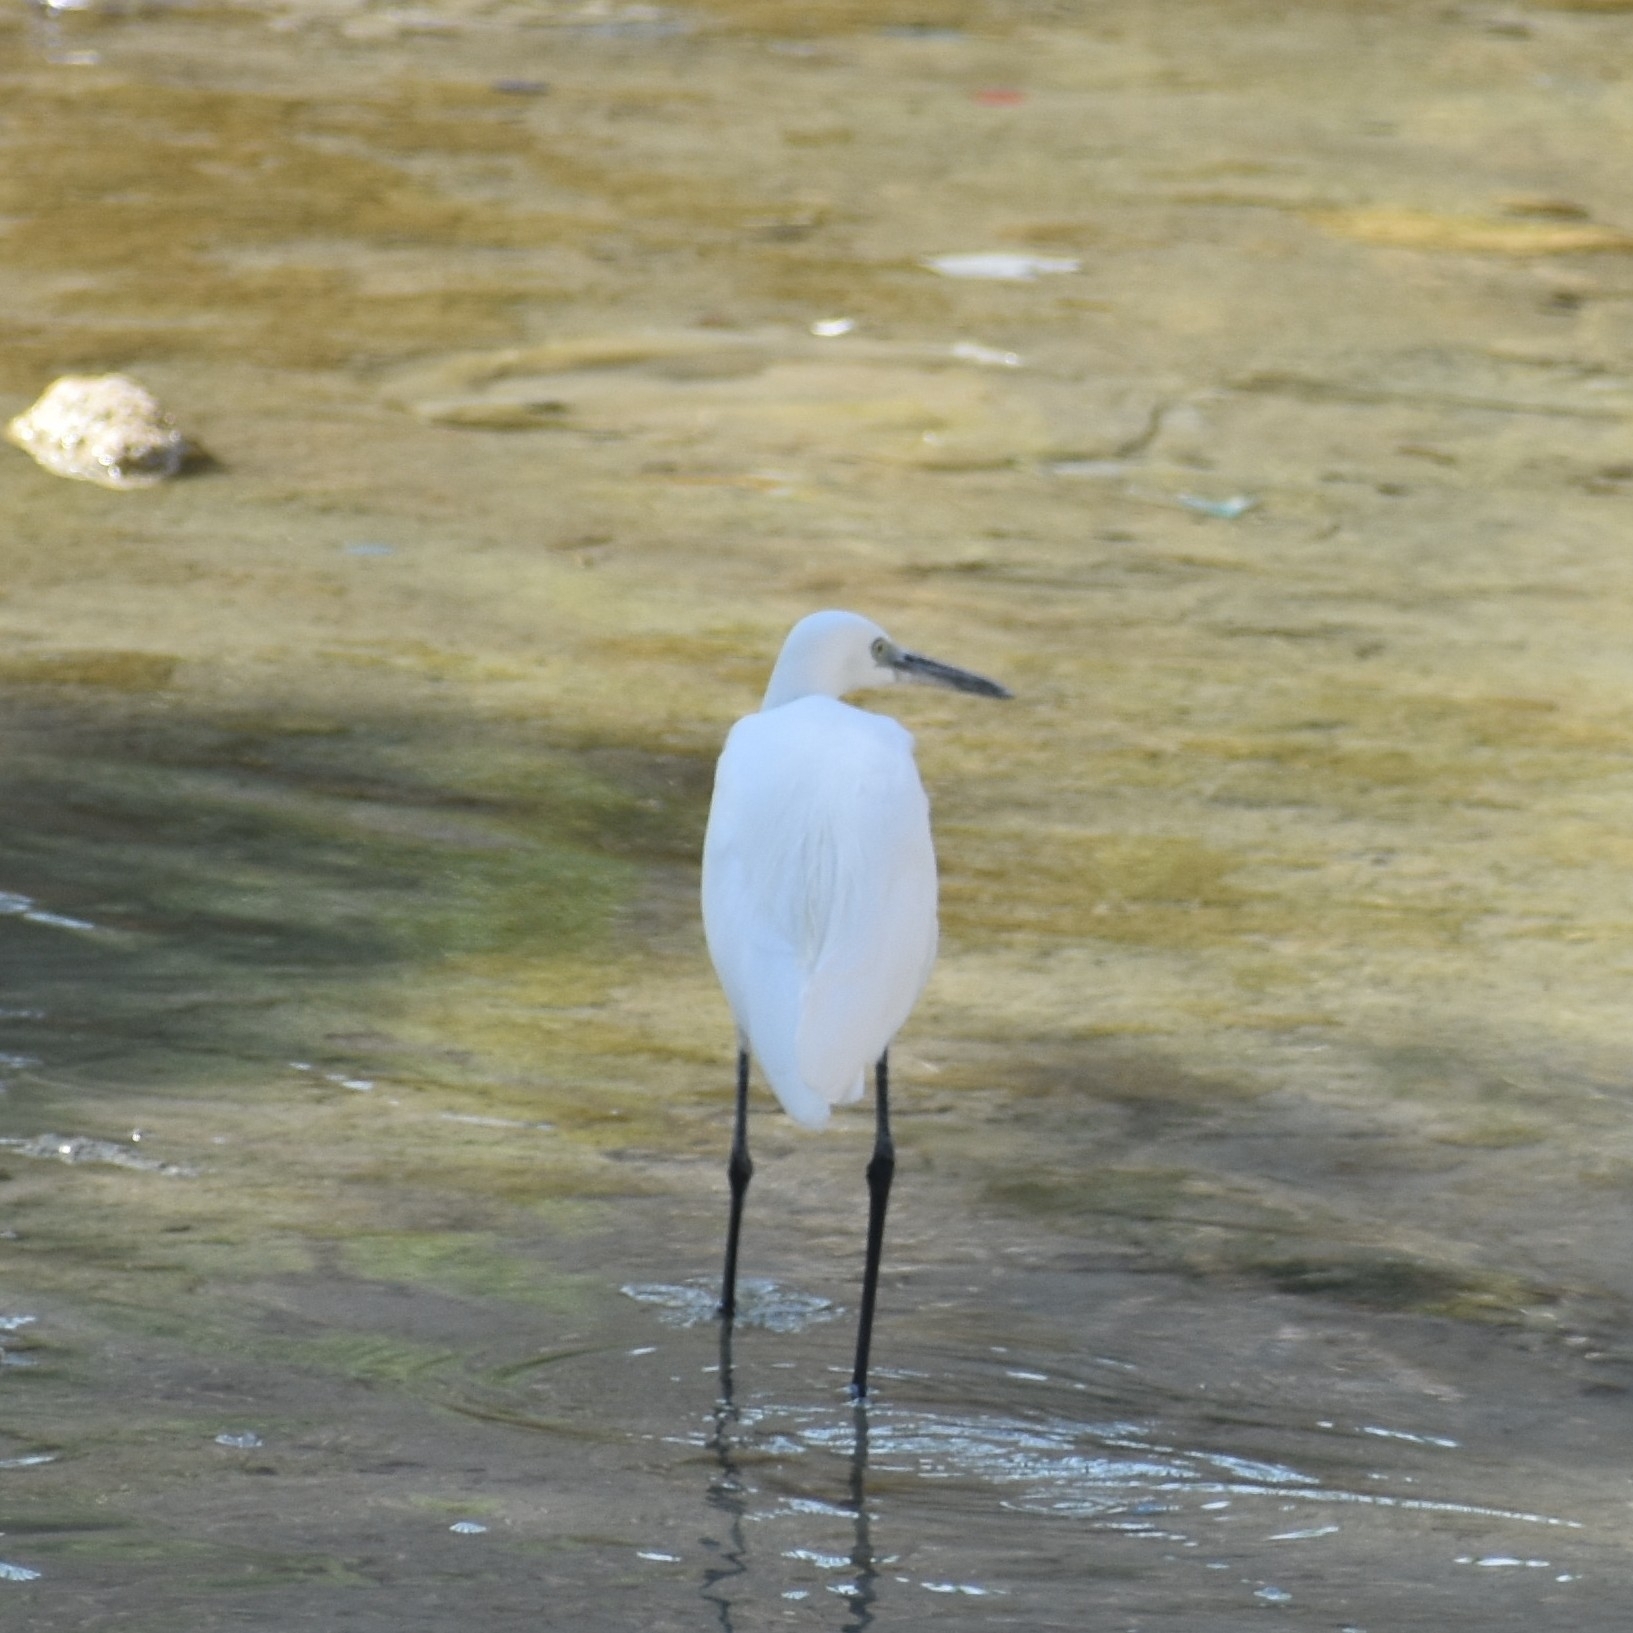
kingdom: Animalia
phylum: Chordata
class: Aves
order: Pelecaniformes
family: Ardeidae
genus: Egretta
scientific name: Egretta garzetta
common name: Little egret
